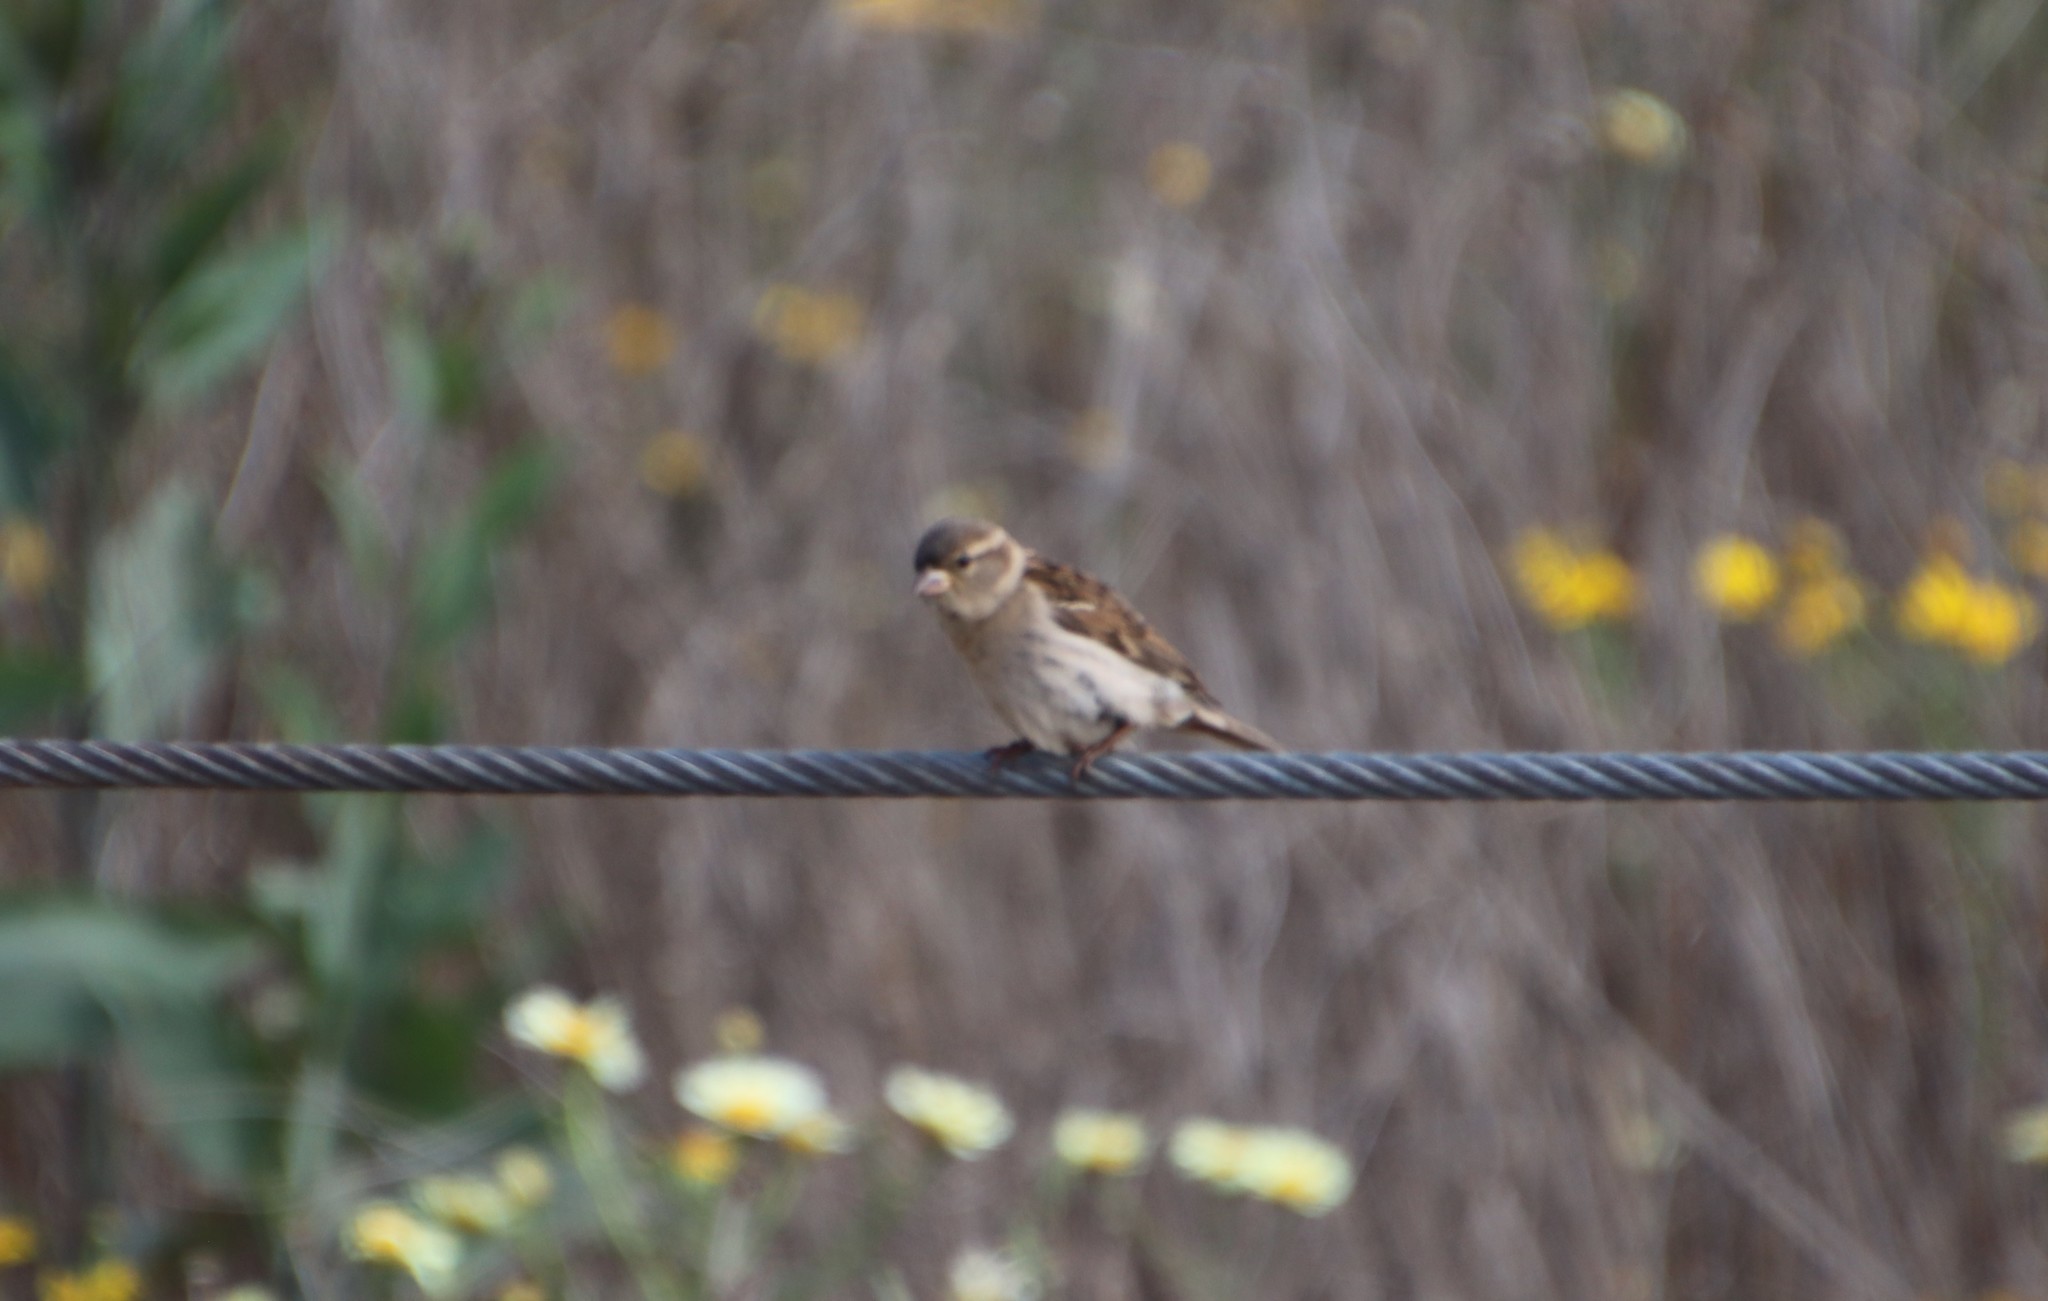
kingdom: Animalia
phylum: Chordata
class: Aves
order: Passeriformes
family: Passeridae
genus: Passer
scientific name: Passer domesticus
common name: House sparrow
